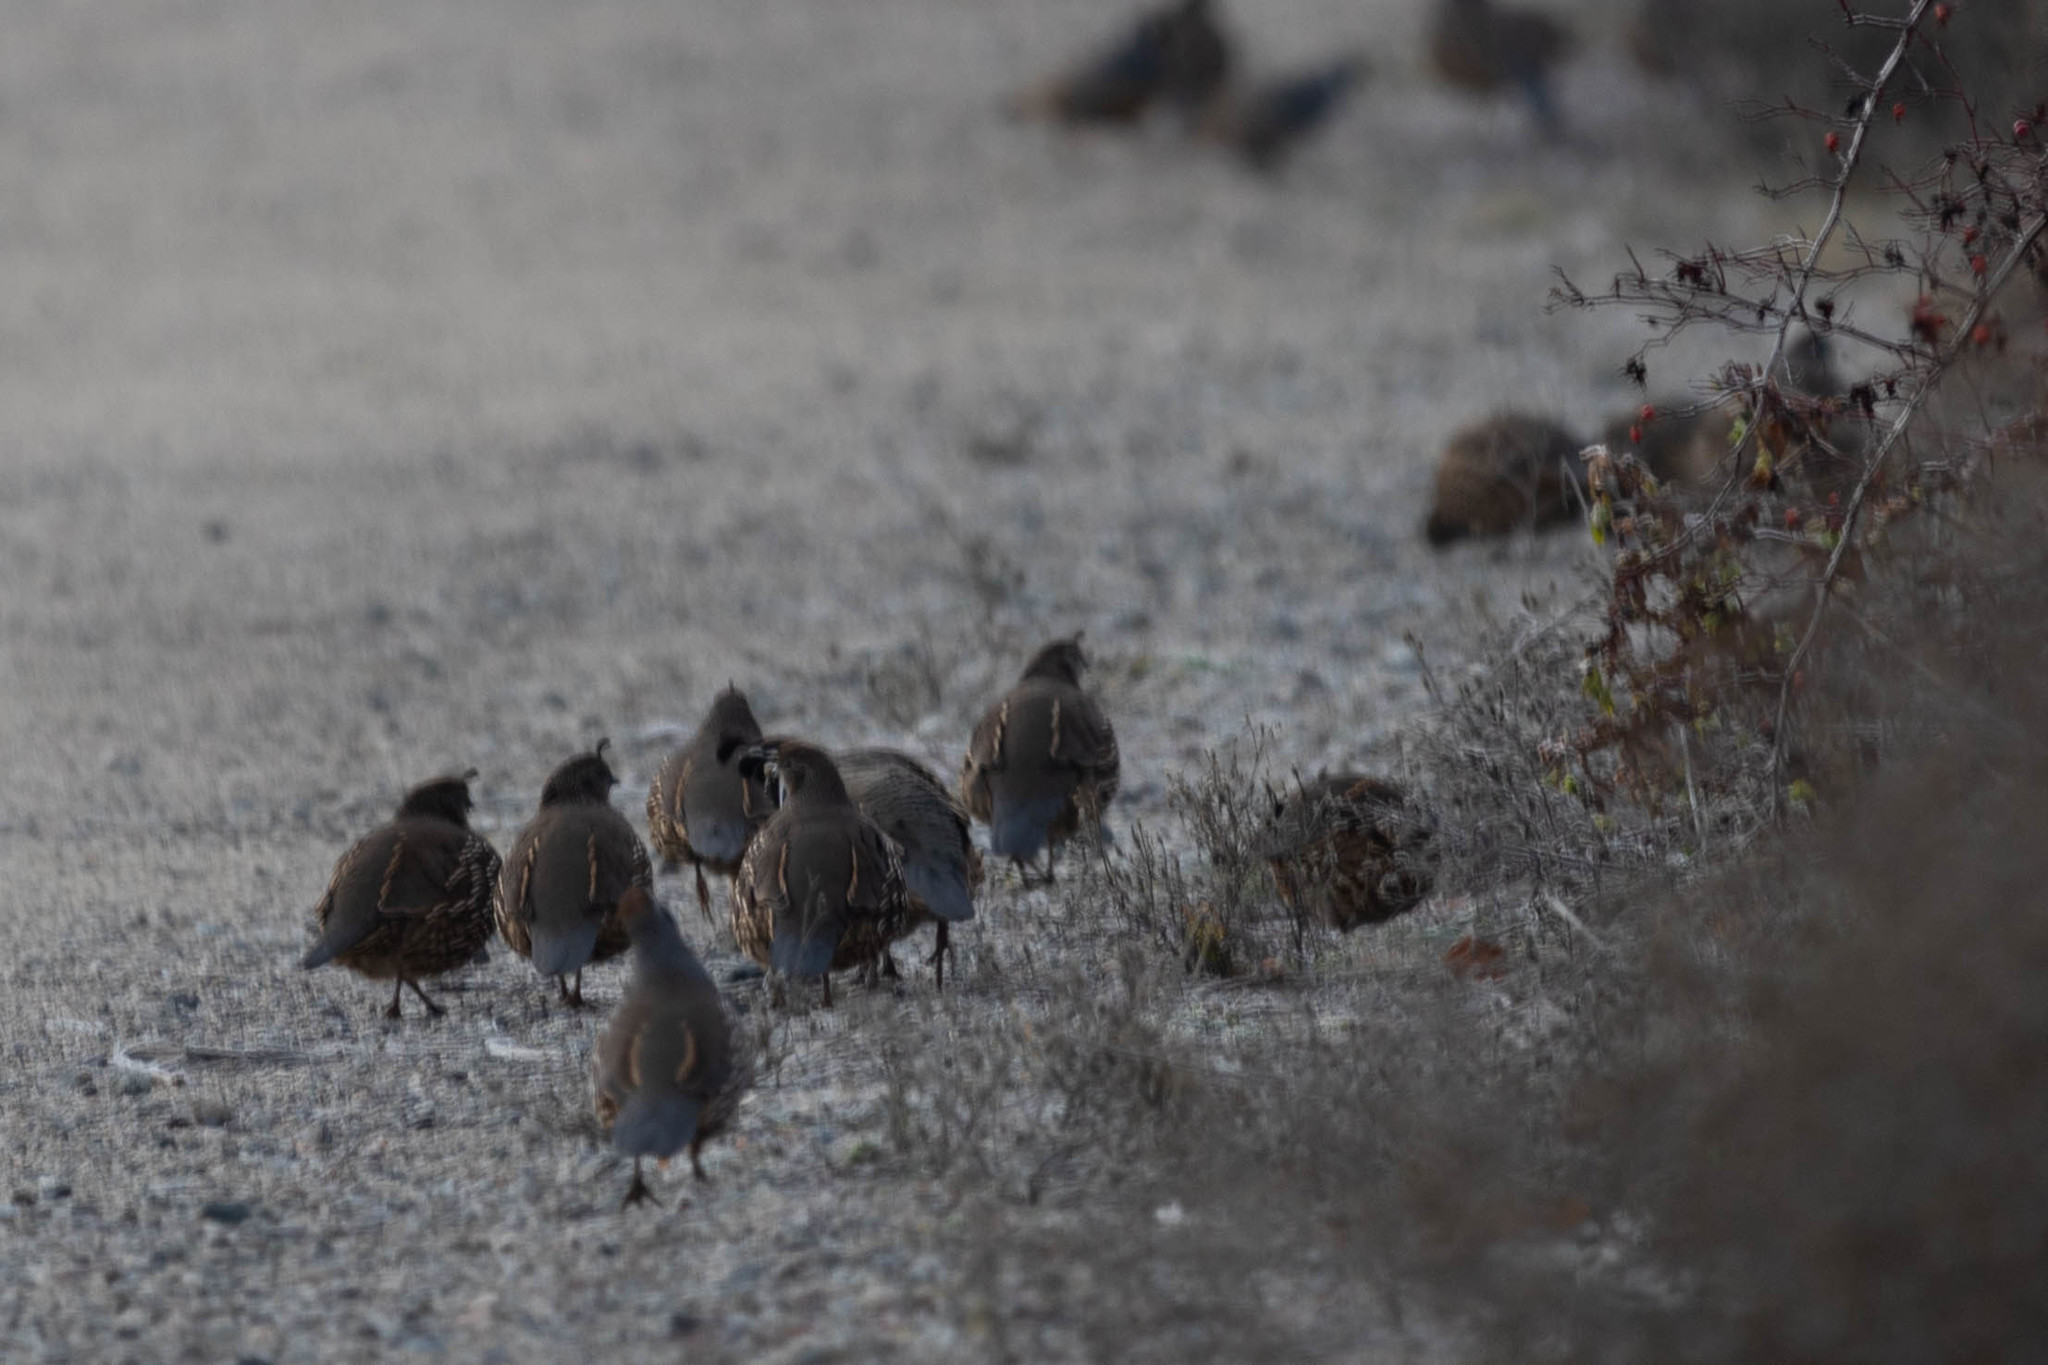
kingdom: Animalia
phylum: Chordata
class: Aves
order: Galliformes
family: Odontophoridae
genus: Callipepla
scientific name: Callipepla californica
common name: California quail
